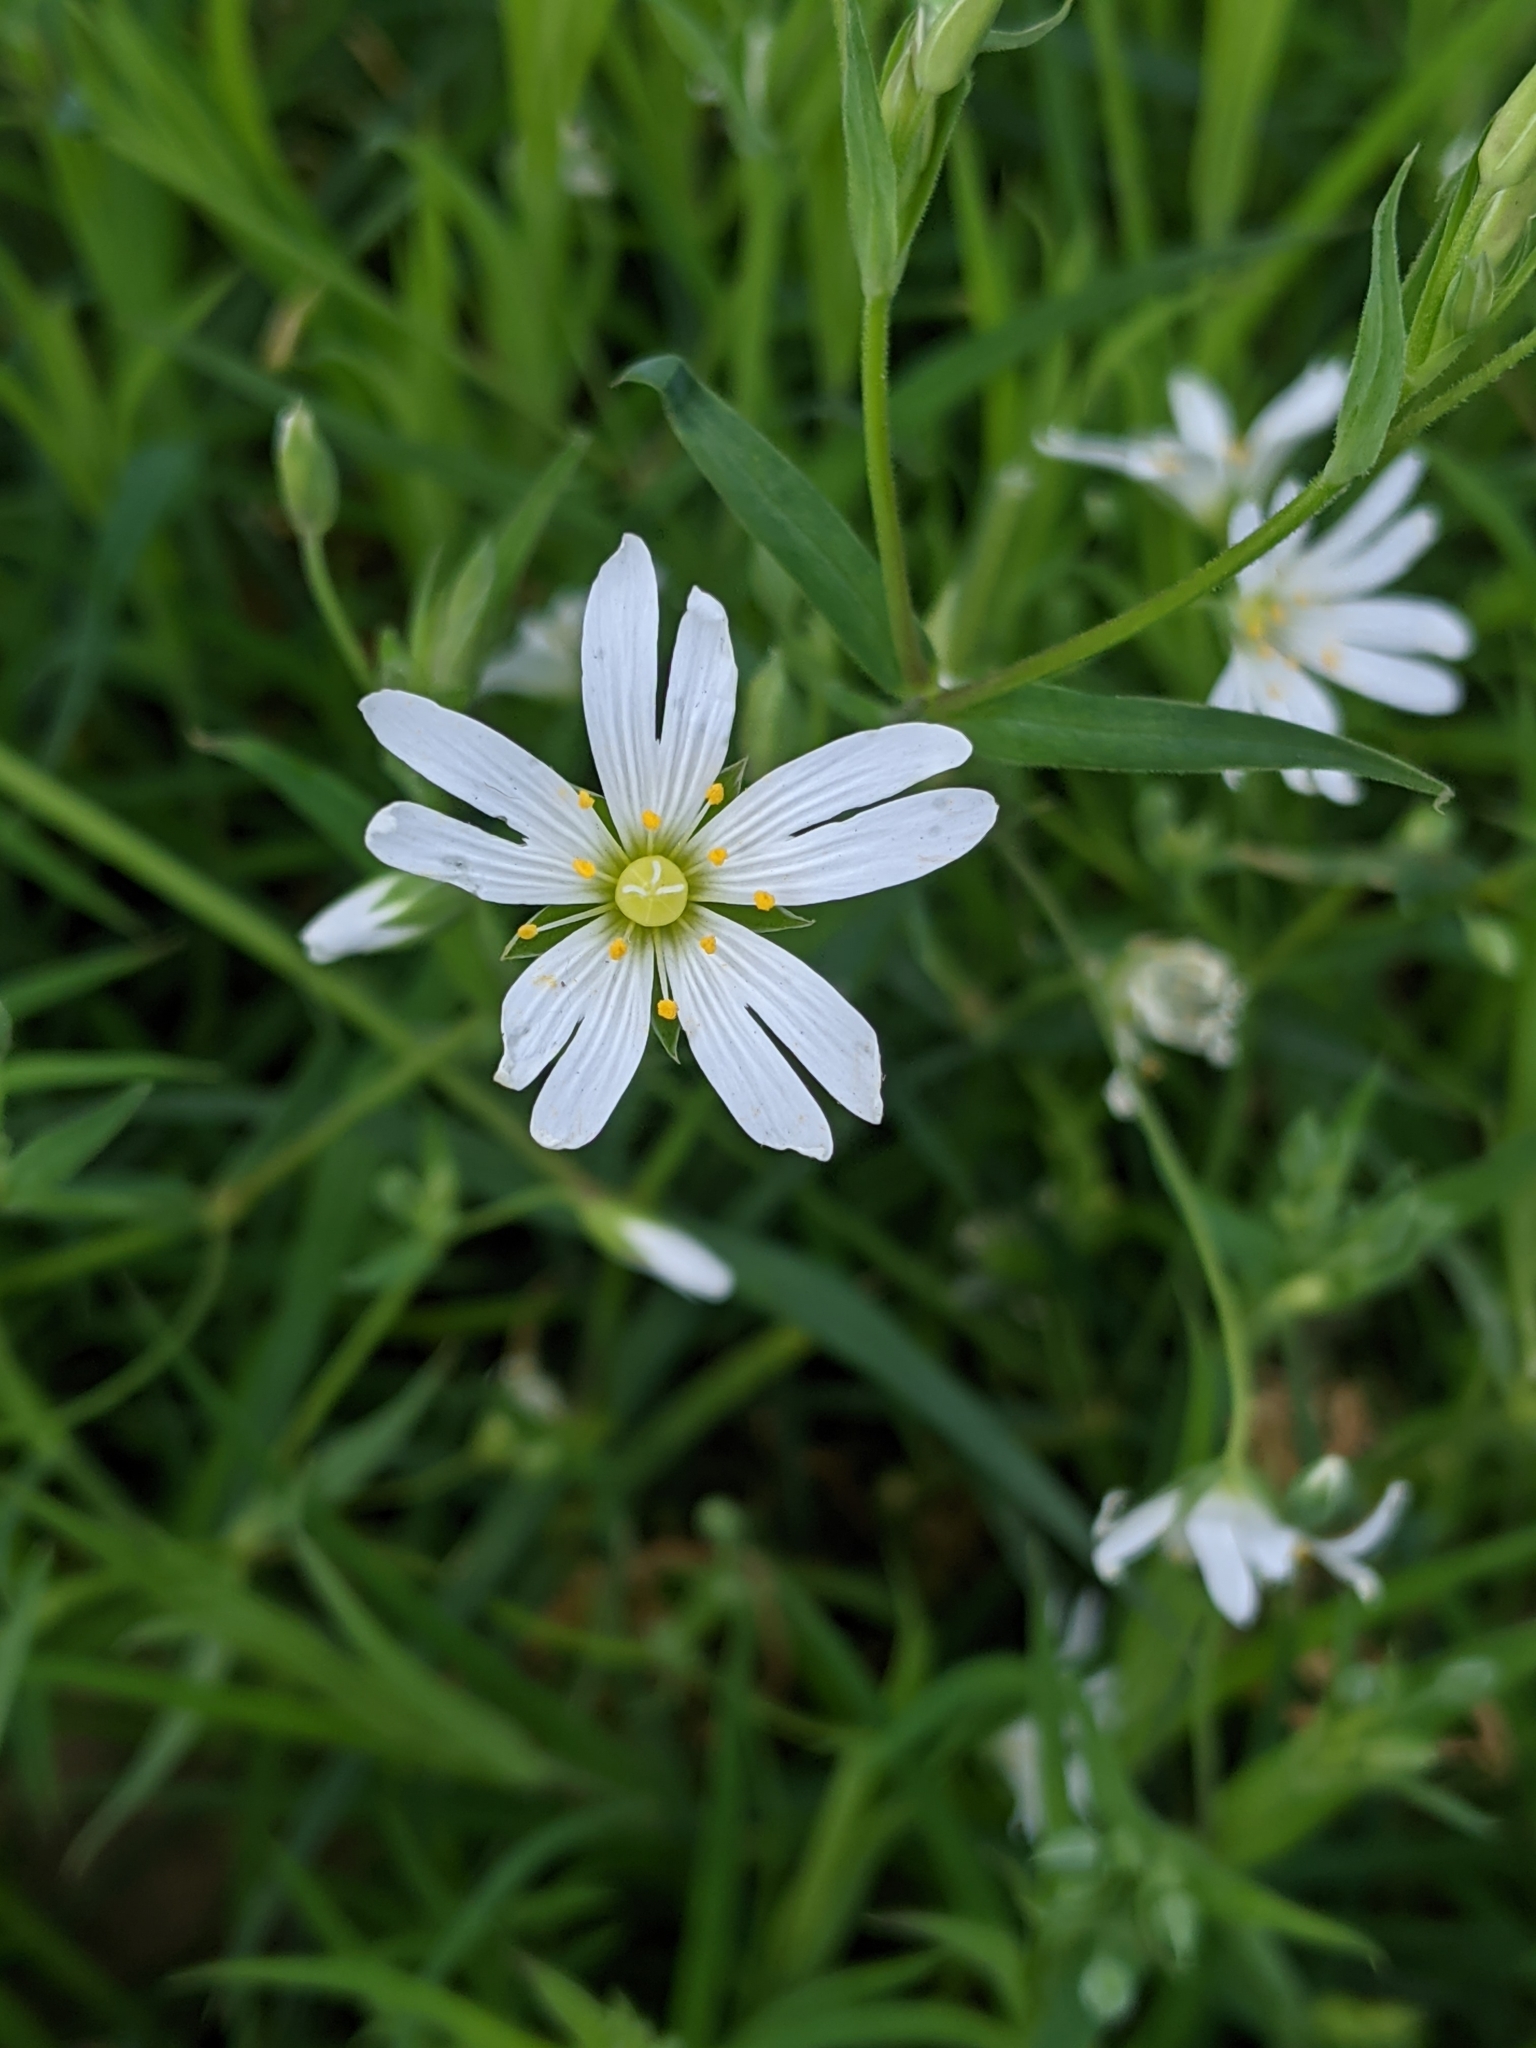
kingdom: Plantae
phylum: Tracheophyta
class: Magnoliopsida
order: Caryophyllales
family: Caryophyllaceae
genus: Rabelera
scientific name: Rabelera holostea
